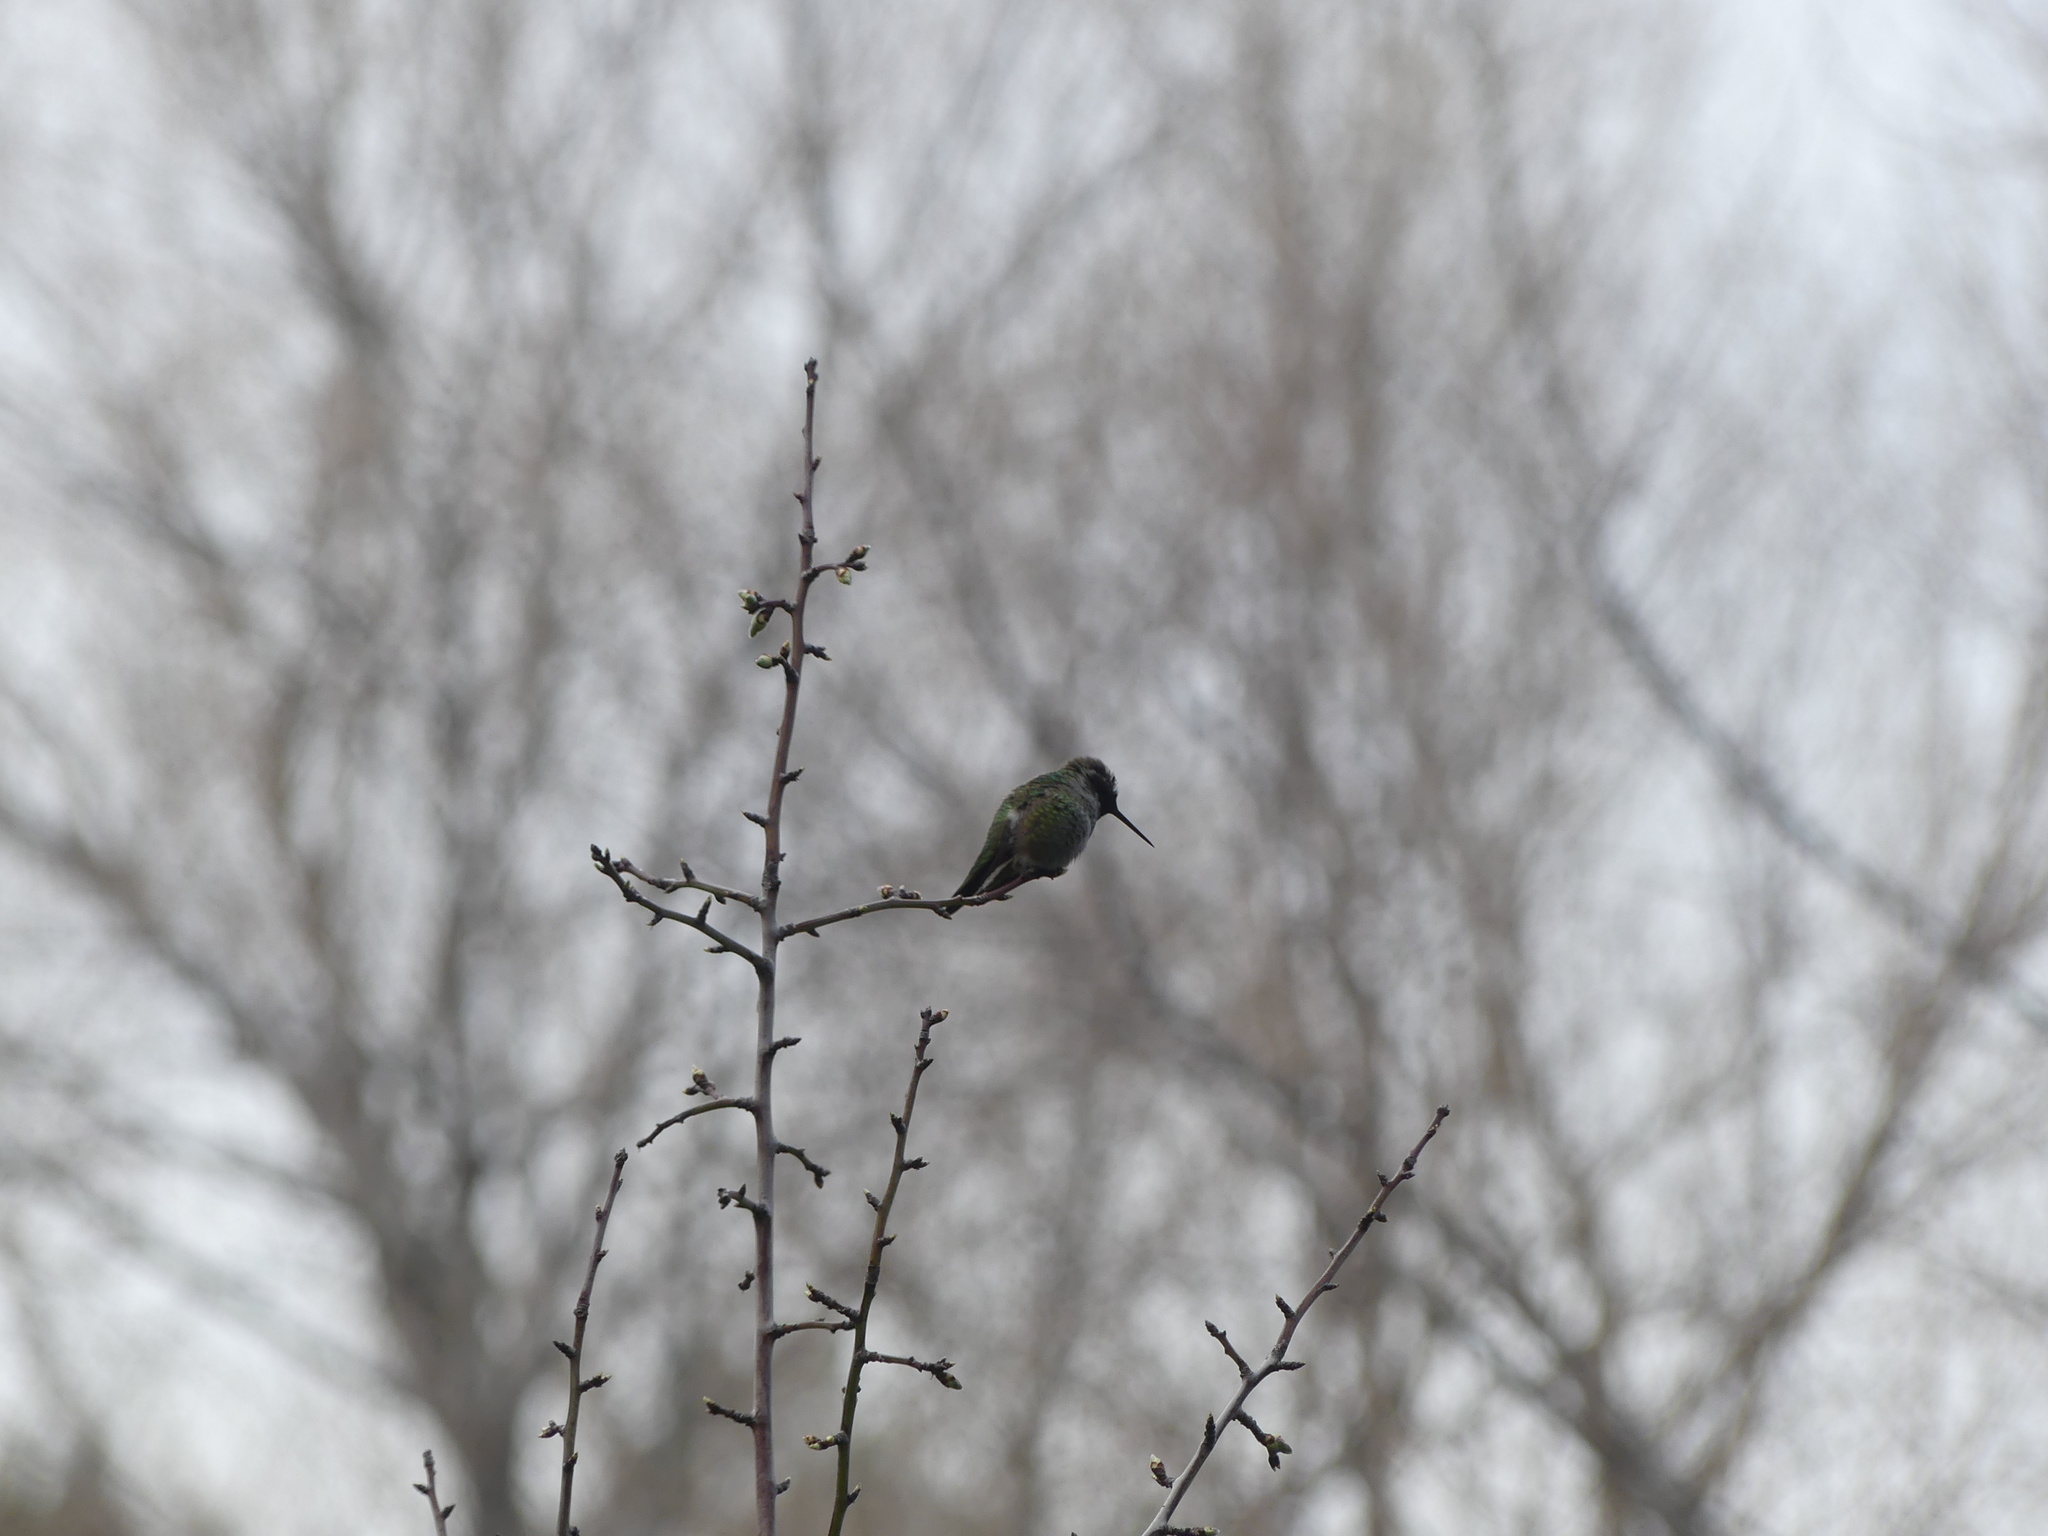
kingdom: Animalia
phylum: Chordata
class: Aves
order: Apodiformes
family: Trochilidae
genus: Calypte
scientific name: Calypte anna
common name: Anna's hummingbird
